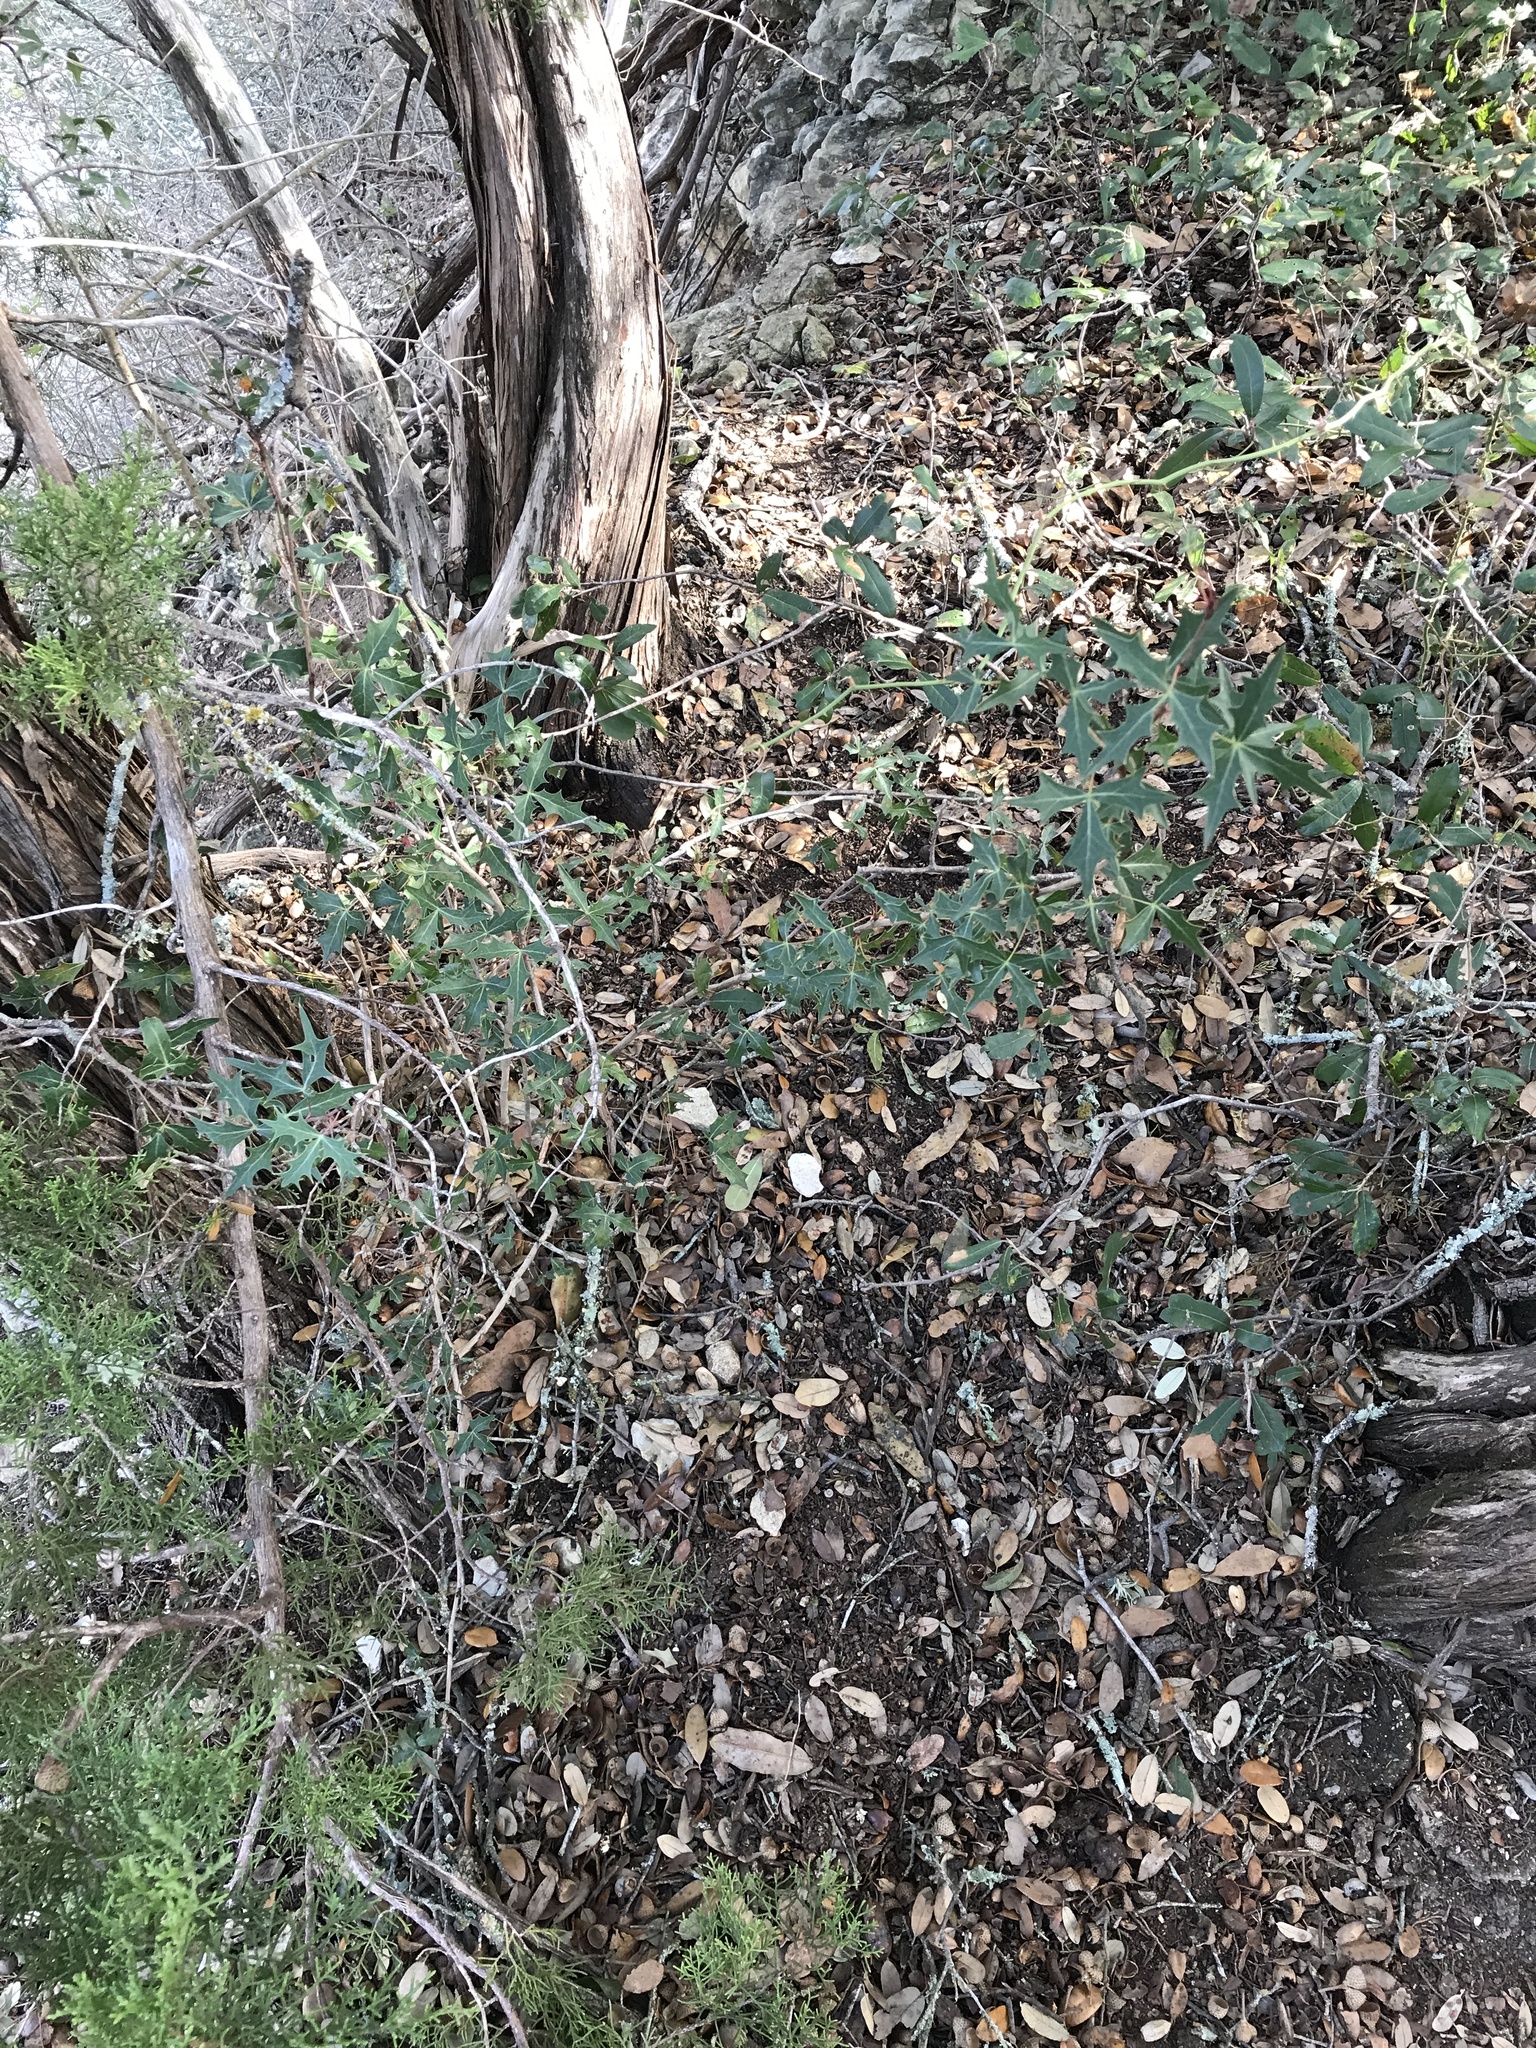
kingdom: Plantae
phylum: Tracheophyta
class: Magnoliopsida
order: Ranunculales
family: Berberidaceae
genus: Alloberberis
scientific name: Alloberberis trifoliolata
